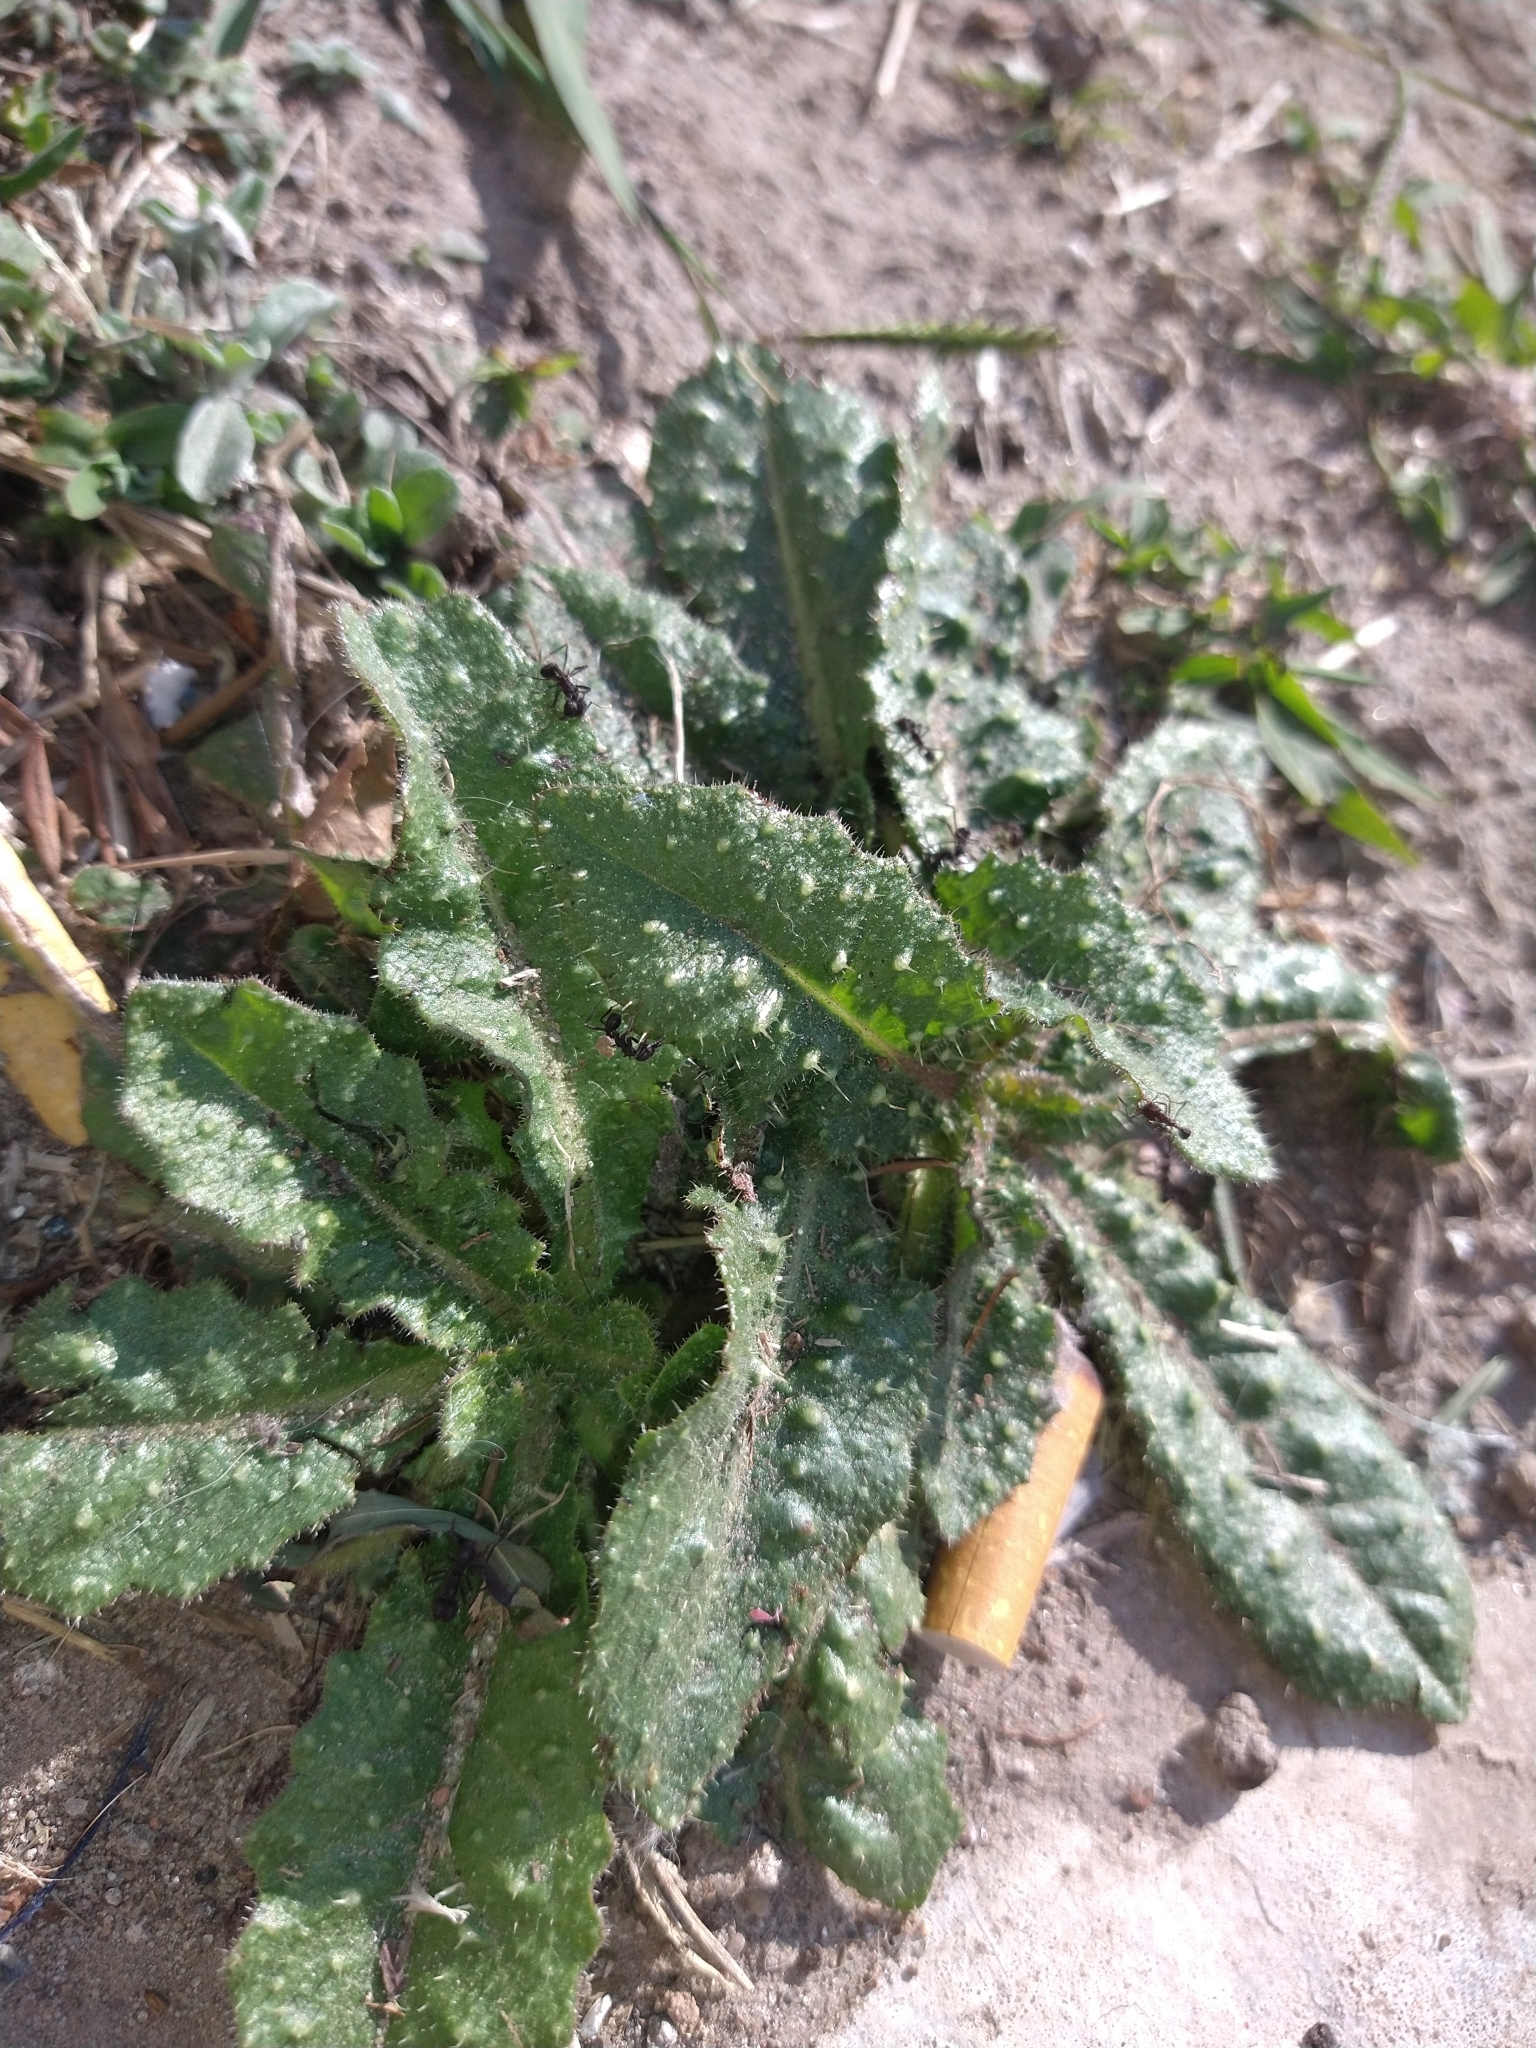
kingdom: Plantae
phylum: Tracheophyta
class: Magnoliopsida
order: Asterales
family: Asteraceae
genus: Helminthotheca
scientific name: Helminthotheca echioides
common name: Ox-tongue
